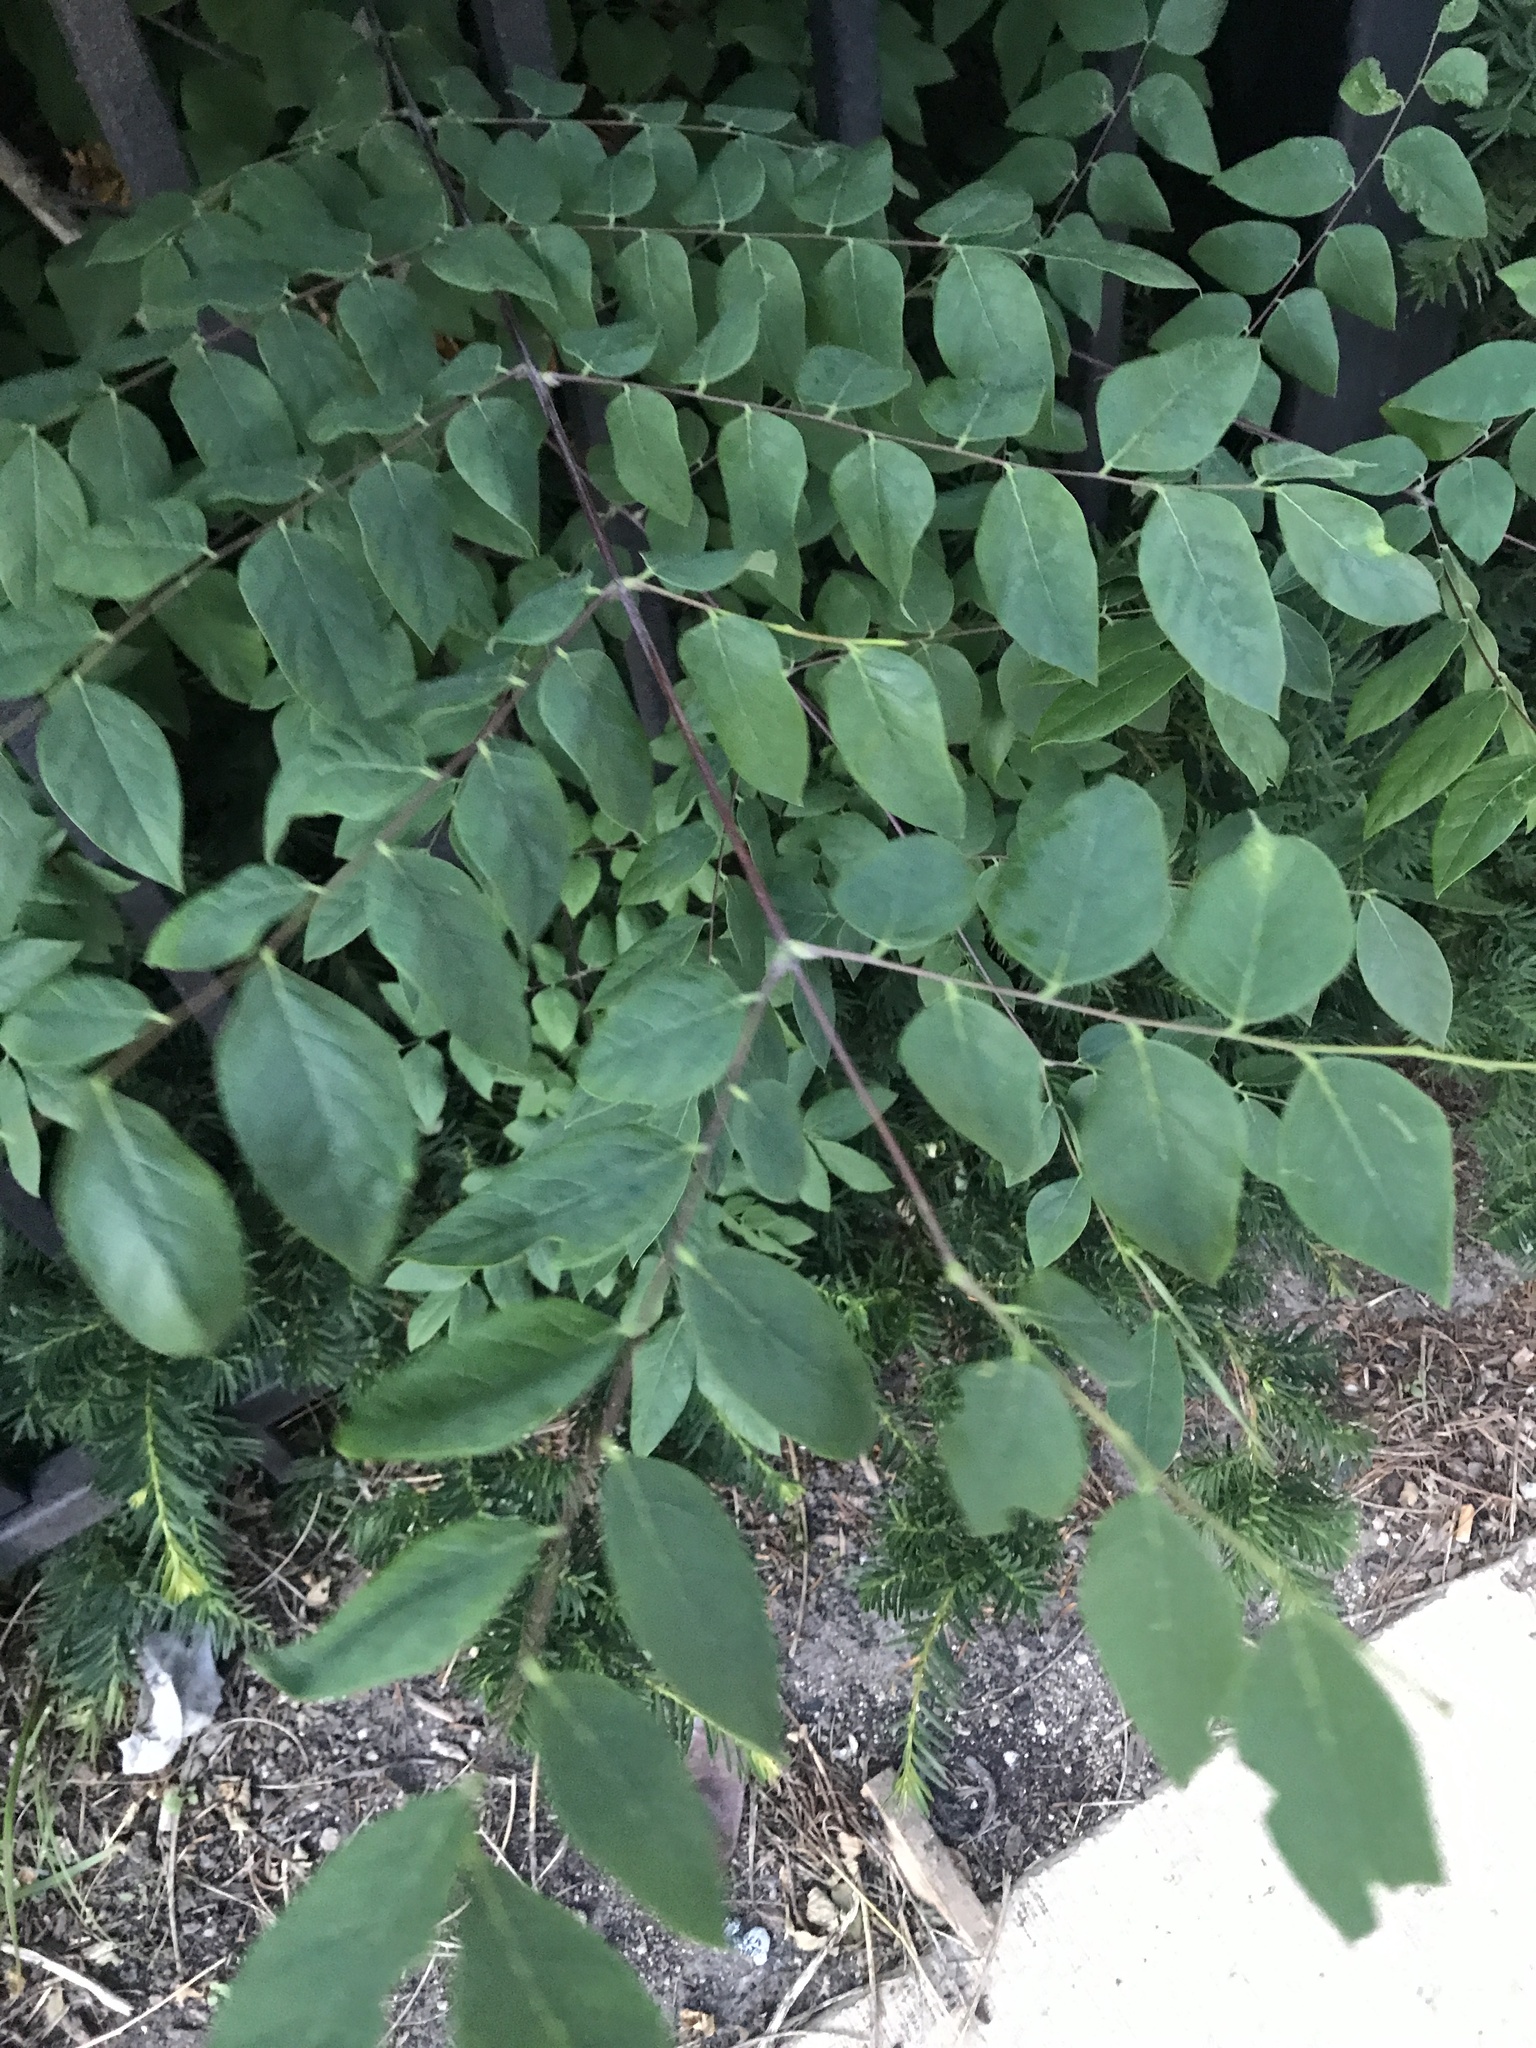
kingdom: Plantae
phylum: Tracheophyta
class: Magnoliopsida
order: Fabales
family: Fabaceae
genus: Gymnocladus
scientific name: Gymnocladus dioicus
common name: Kentucky coffee-tree
